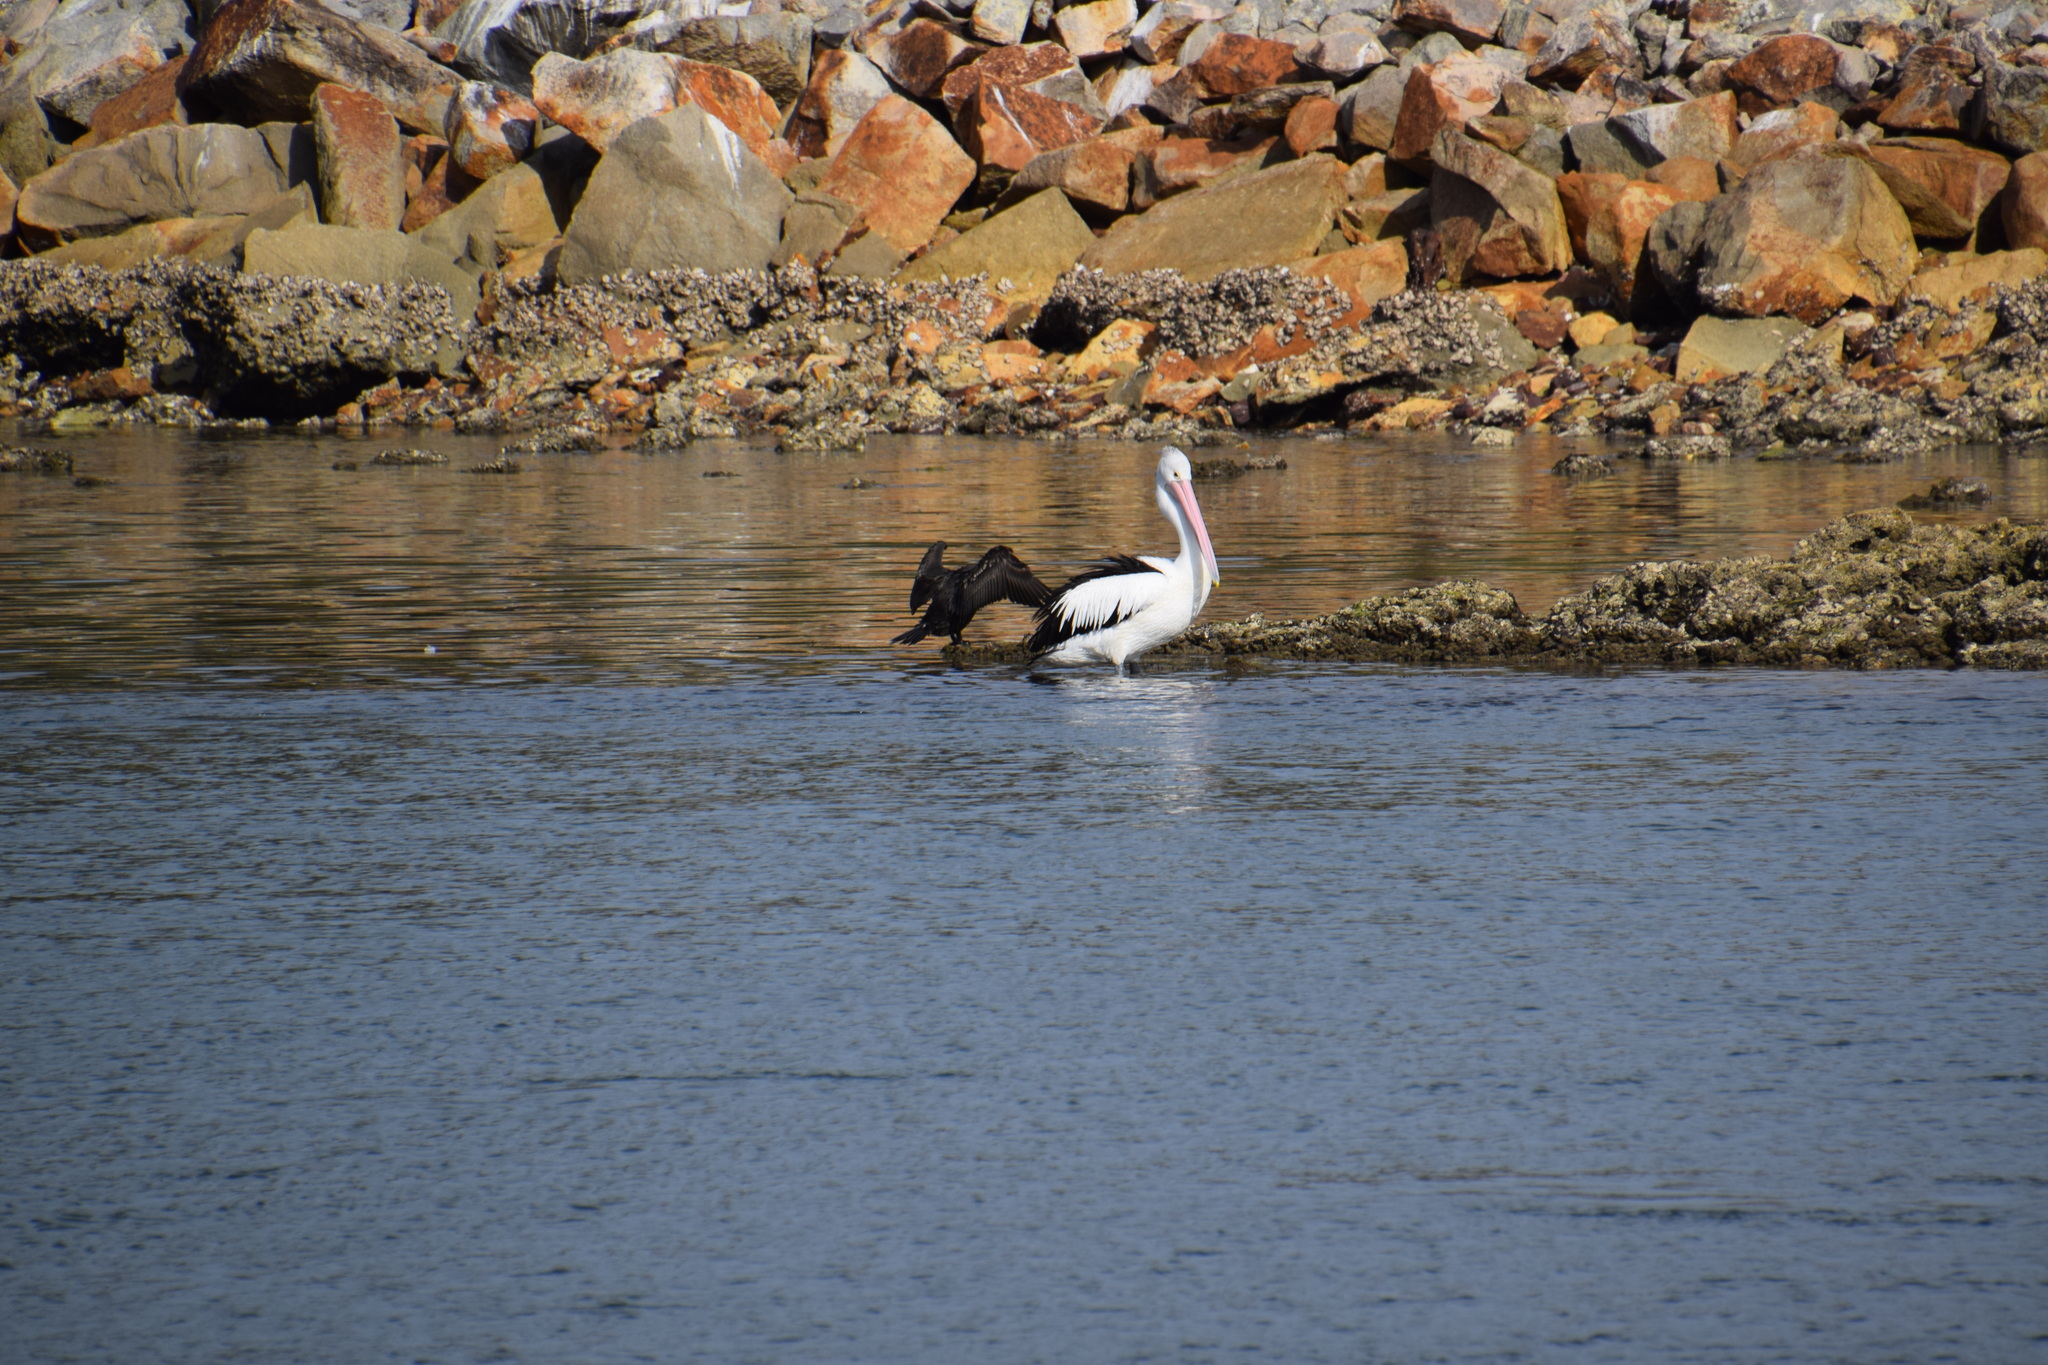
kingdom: Animalia
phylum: Chordata
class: Aves
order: Pelecaniformes
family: Pelecanidae
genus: Pelecanus
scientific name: Pelecanus conspicillatus
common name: Australian pelican
